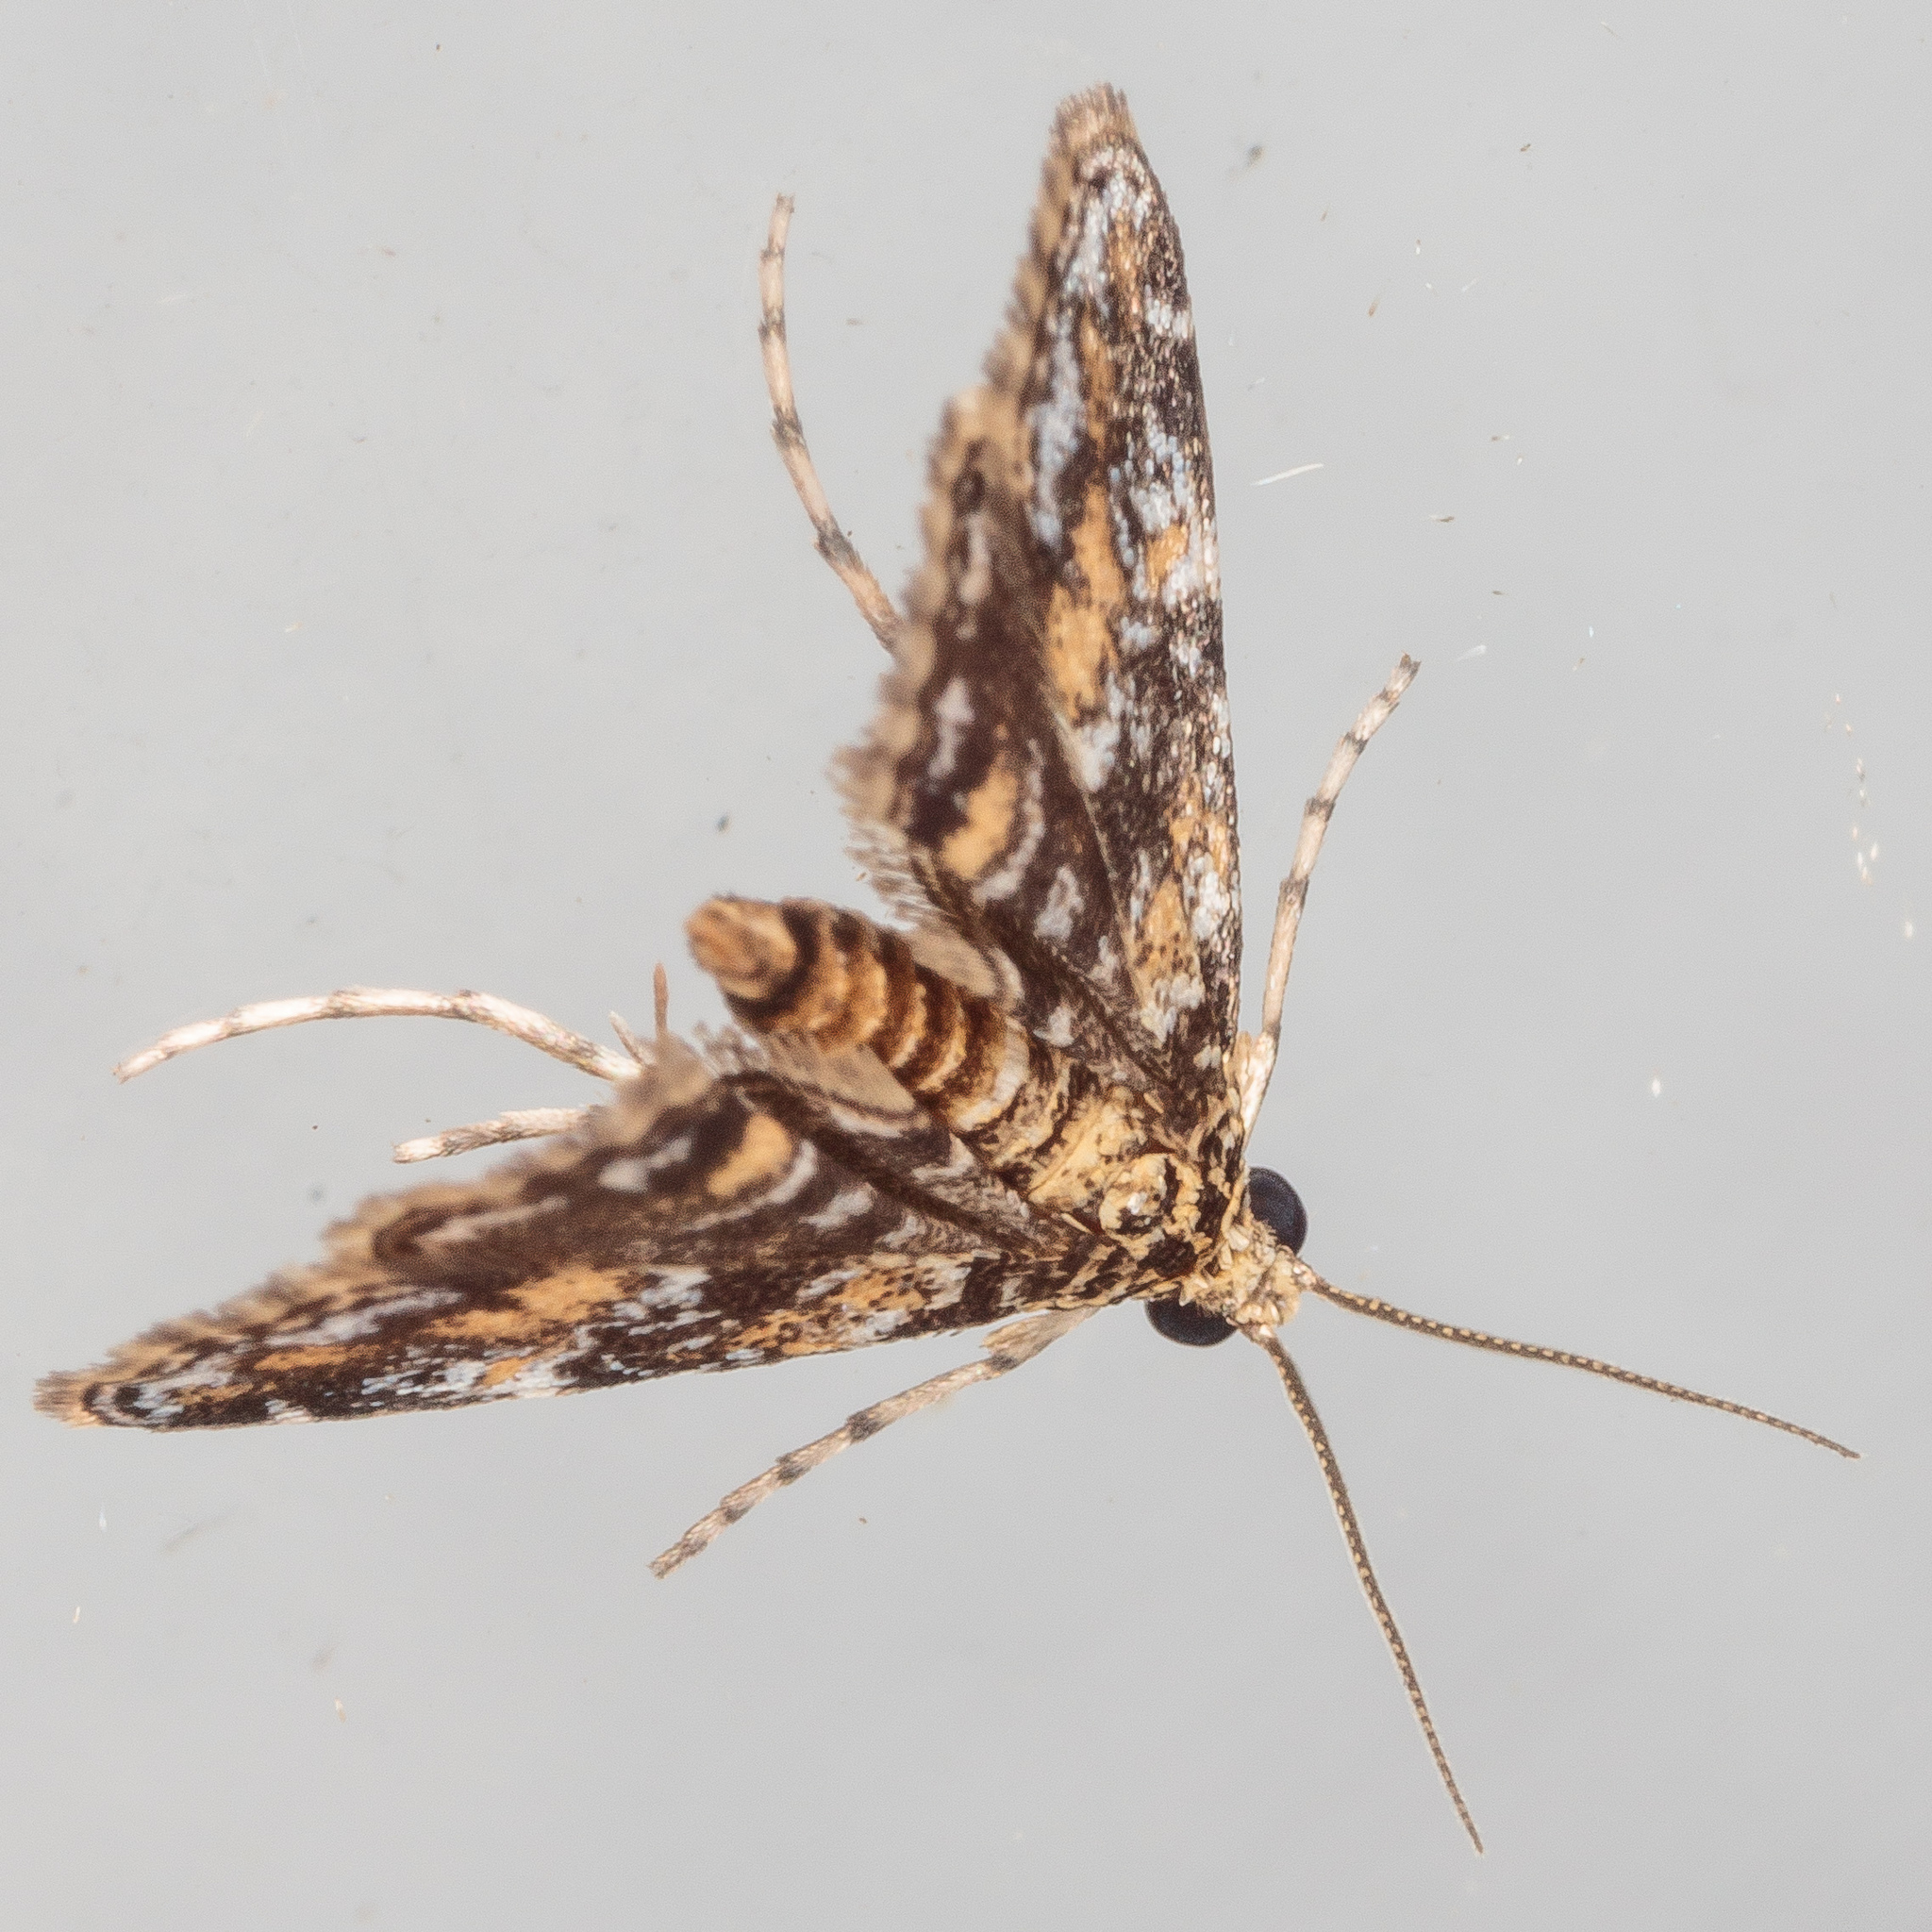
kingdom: Animalia
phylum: Arthropoda
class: Insecta
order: Lepidoptera
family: Crambidae
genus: Elophila
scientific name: Elophila obliteralis
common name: Waterlily leafcutter moth
